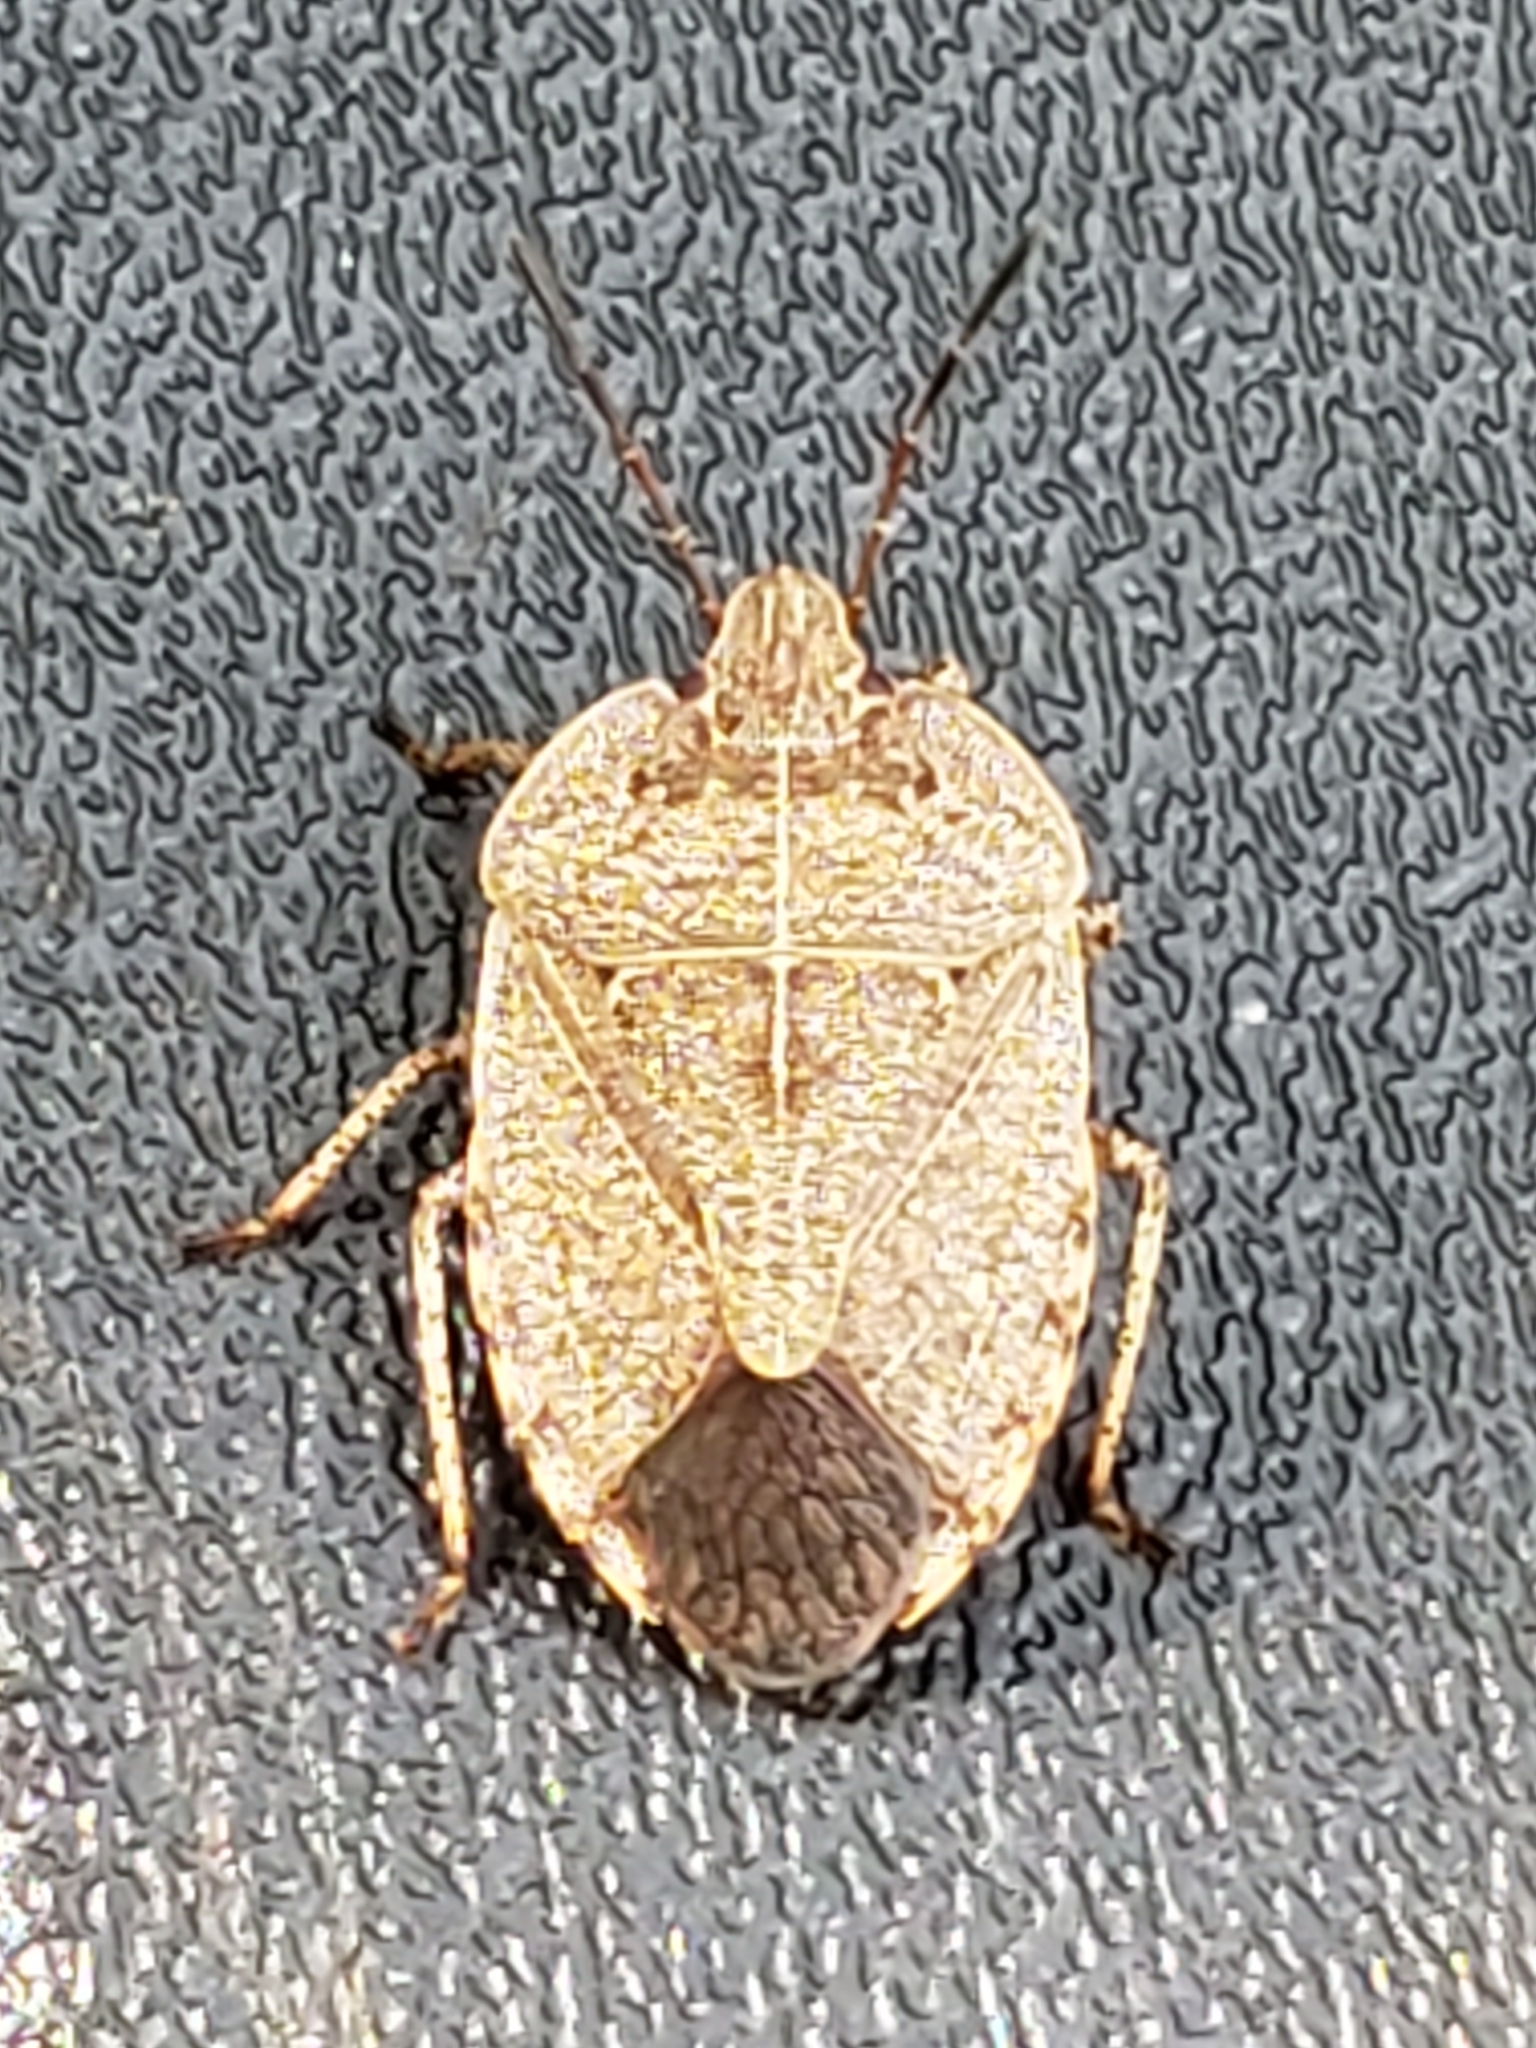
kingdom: Animalia
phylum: Arthropoda
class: Insecta
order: Hemiptera
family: Pentatomidae
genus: Menecles
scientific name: Menecles insertus
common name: Elf shoe stink bug
